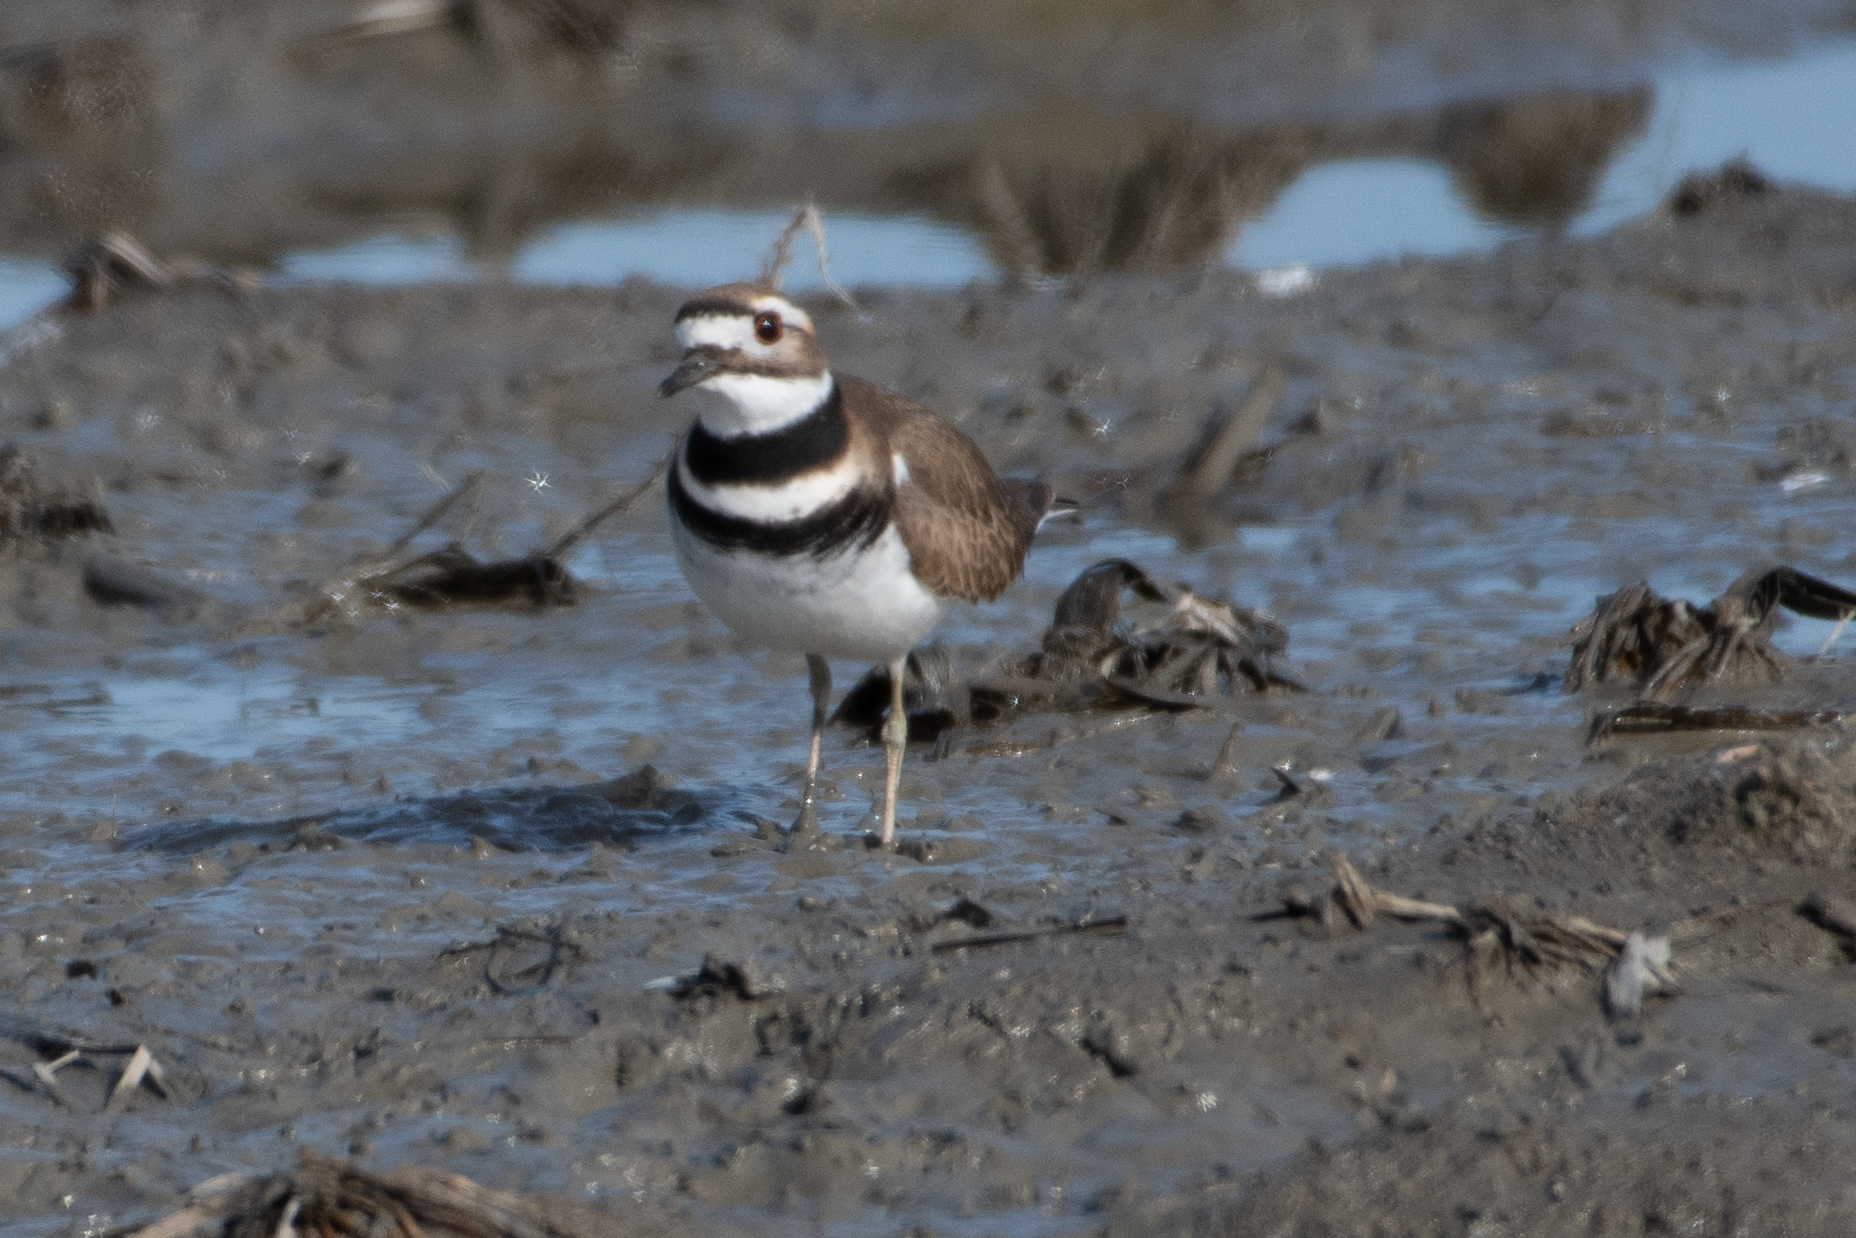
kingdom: Animalia
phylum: Chordata
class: Aves
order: Charadriiformes
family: Charadriidae
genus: Charadrius
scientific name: Charadrius vociferus
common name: Killdeer
